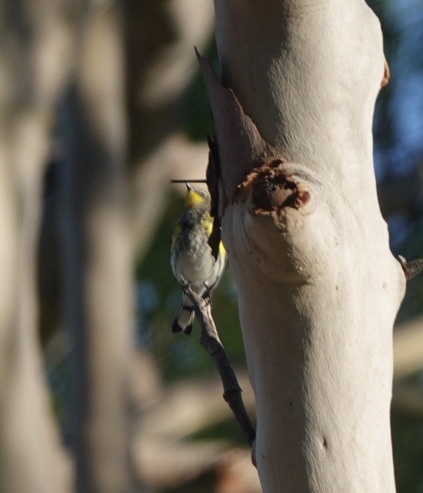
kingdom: Animalia
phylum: Chordata
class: Aves
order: Passeriformes
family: Parulidae
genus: Setophaga
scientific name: Setophaga auduboni
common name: Audubon's warbler
